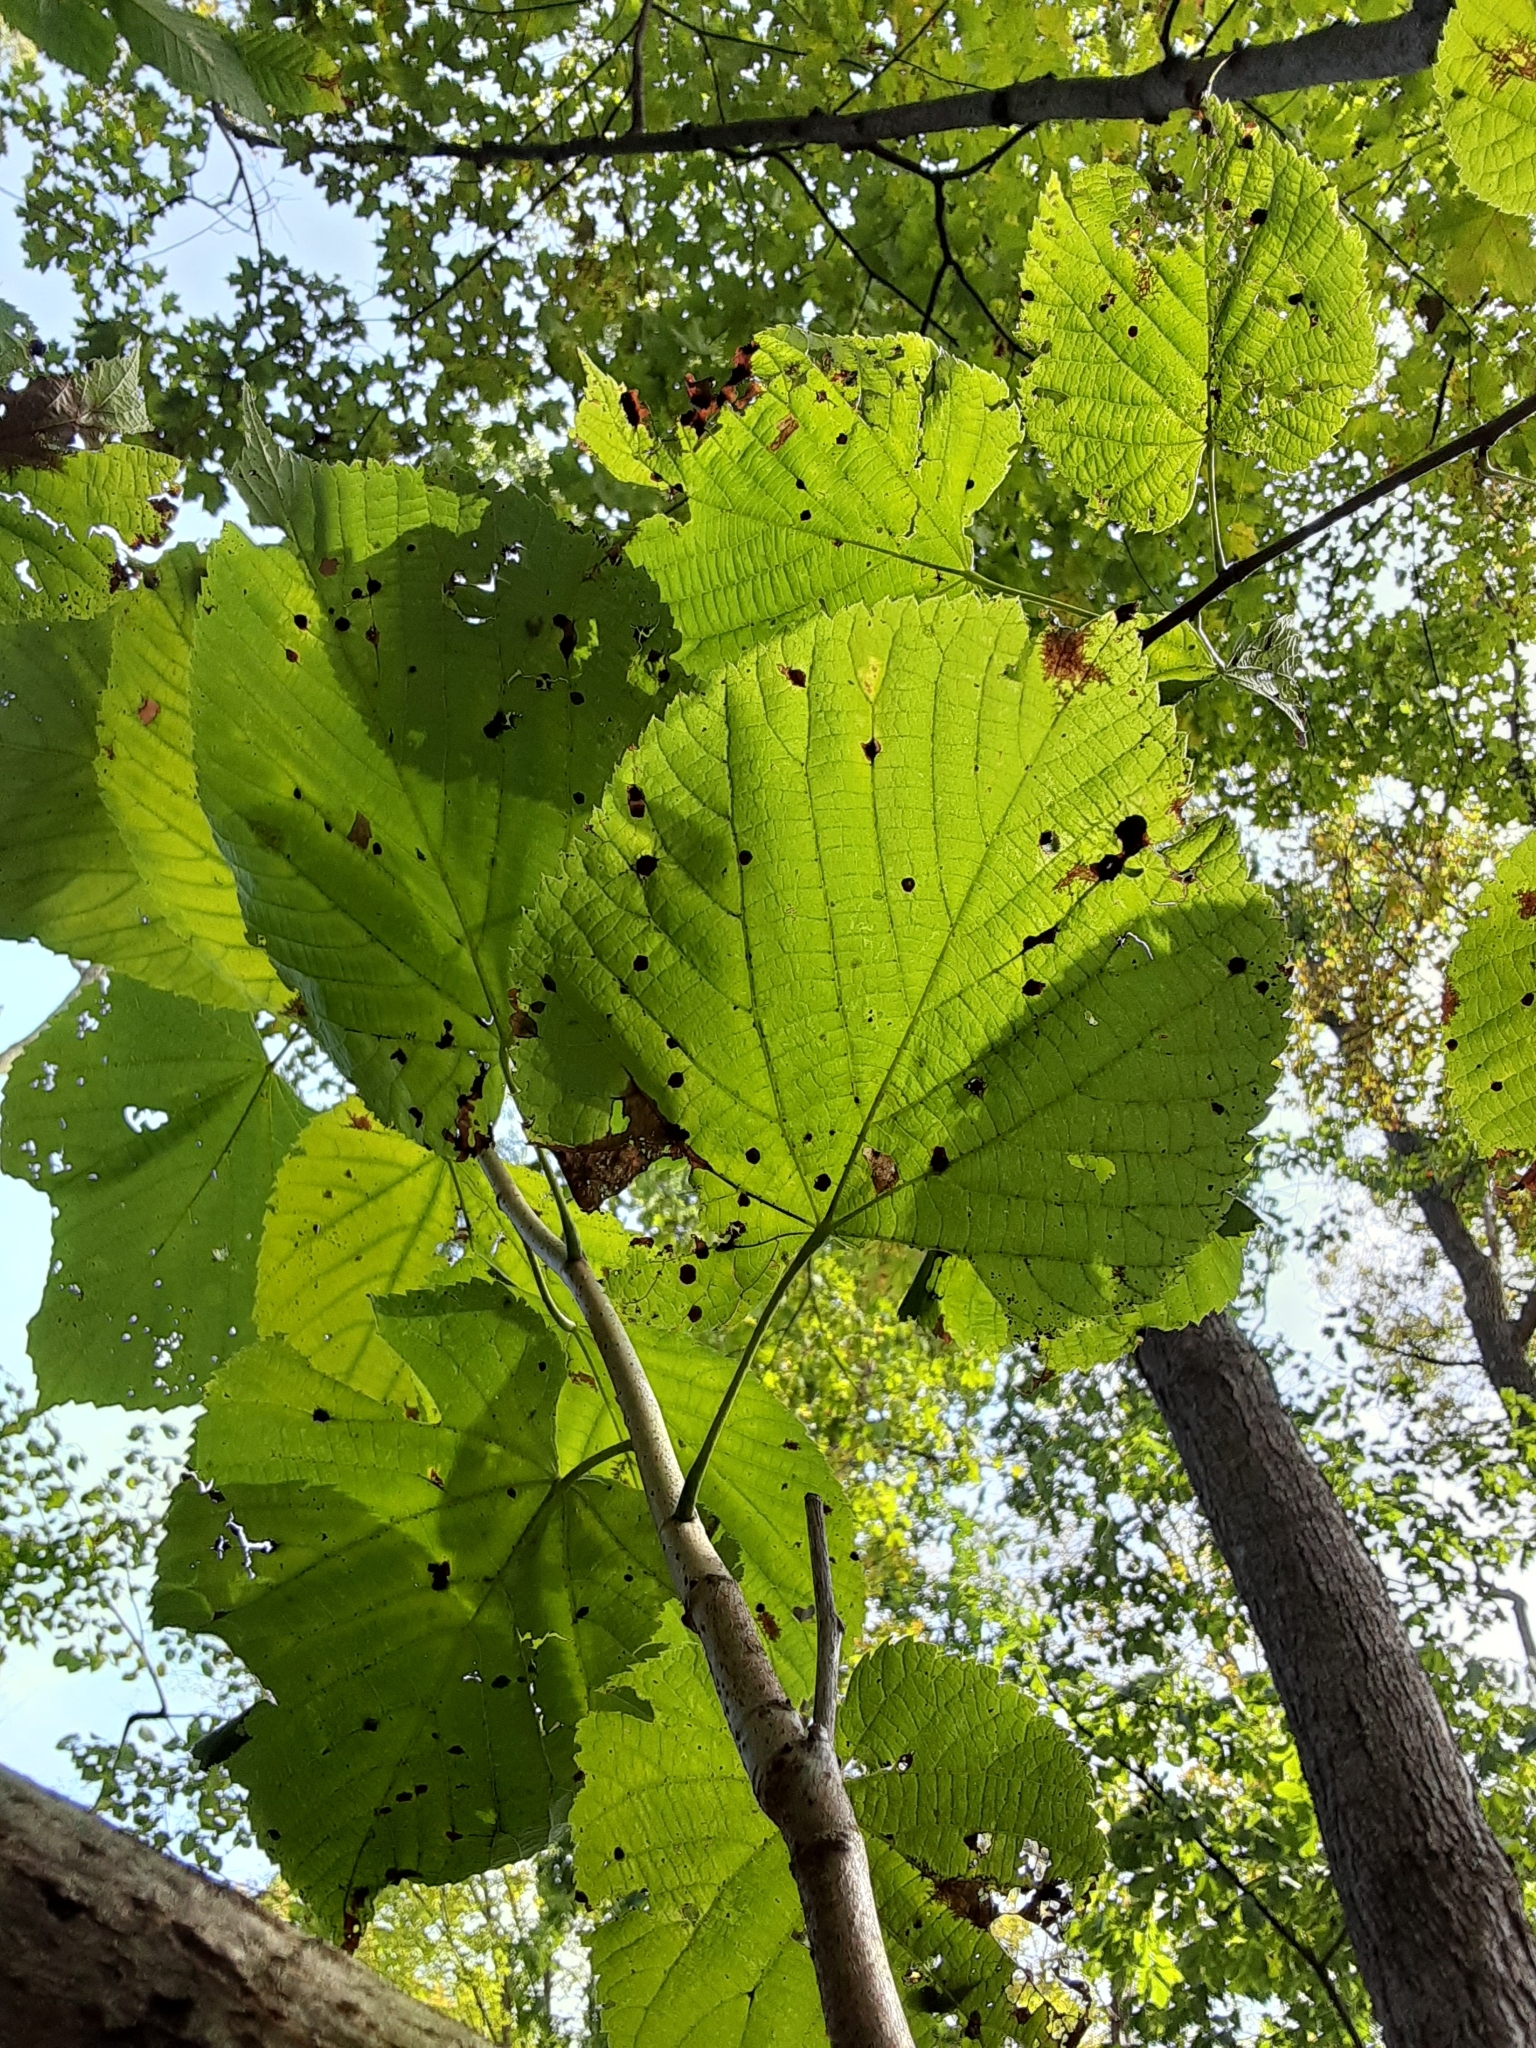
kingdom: Plantae
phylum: Tracheophyta
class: Magnoliopsida
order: Malvales
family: Malvaceae
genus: Tilia
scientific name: Tilia americana
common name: Basswood
